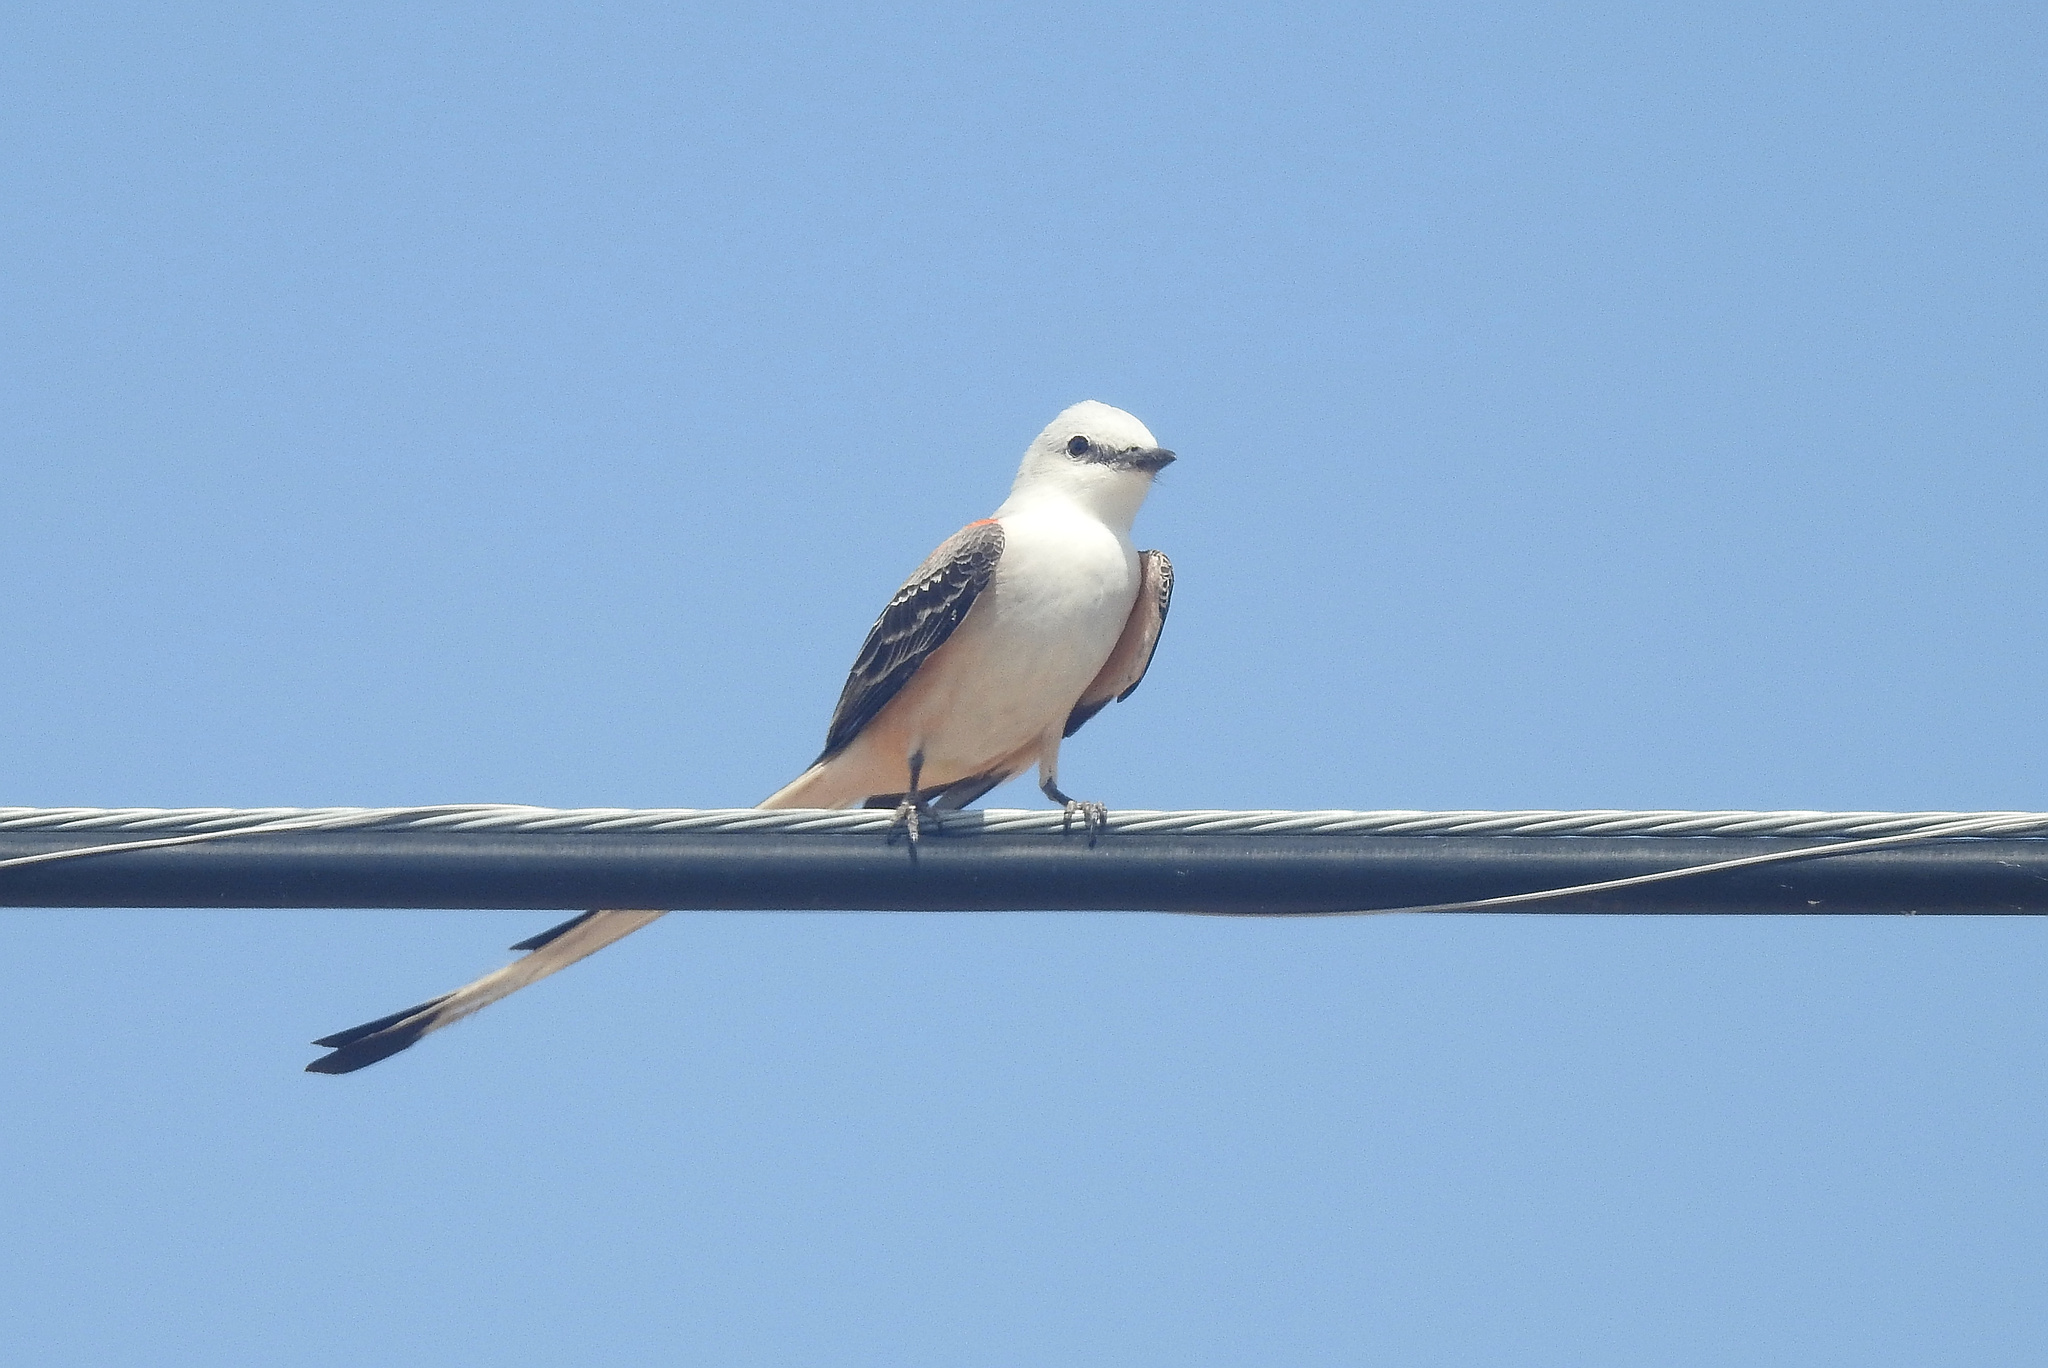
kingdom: Animalia
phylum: Chordata
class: Aves
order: Passeriformes
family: Tyrannidae
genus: Tyrannus
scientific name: Tyrannus forficatus
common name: Scissor-tailed flycatcher
